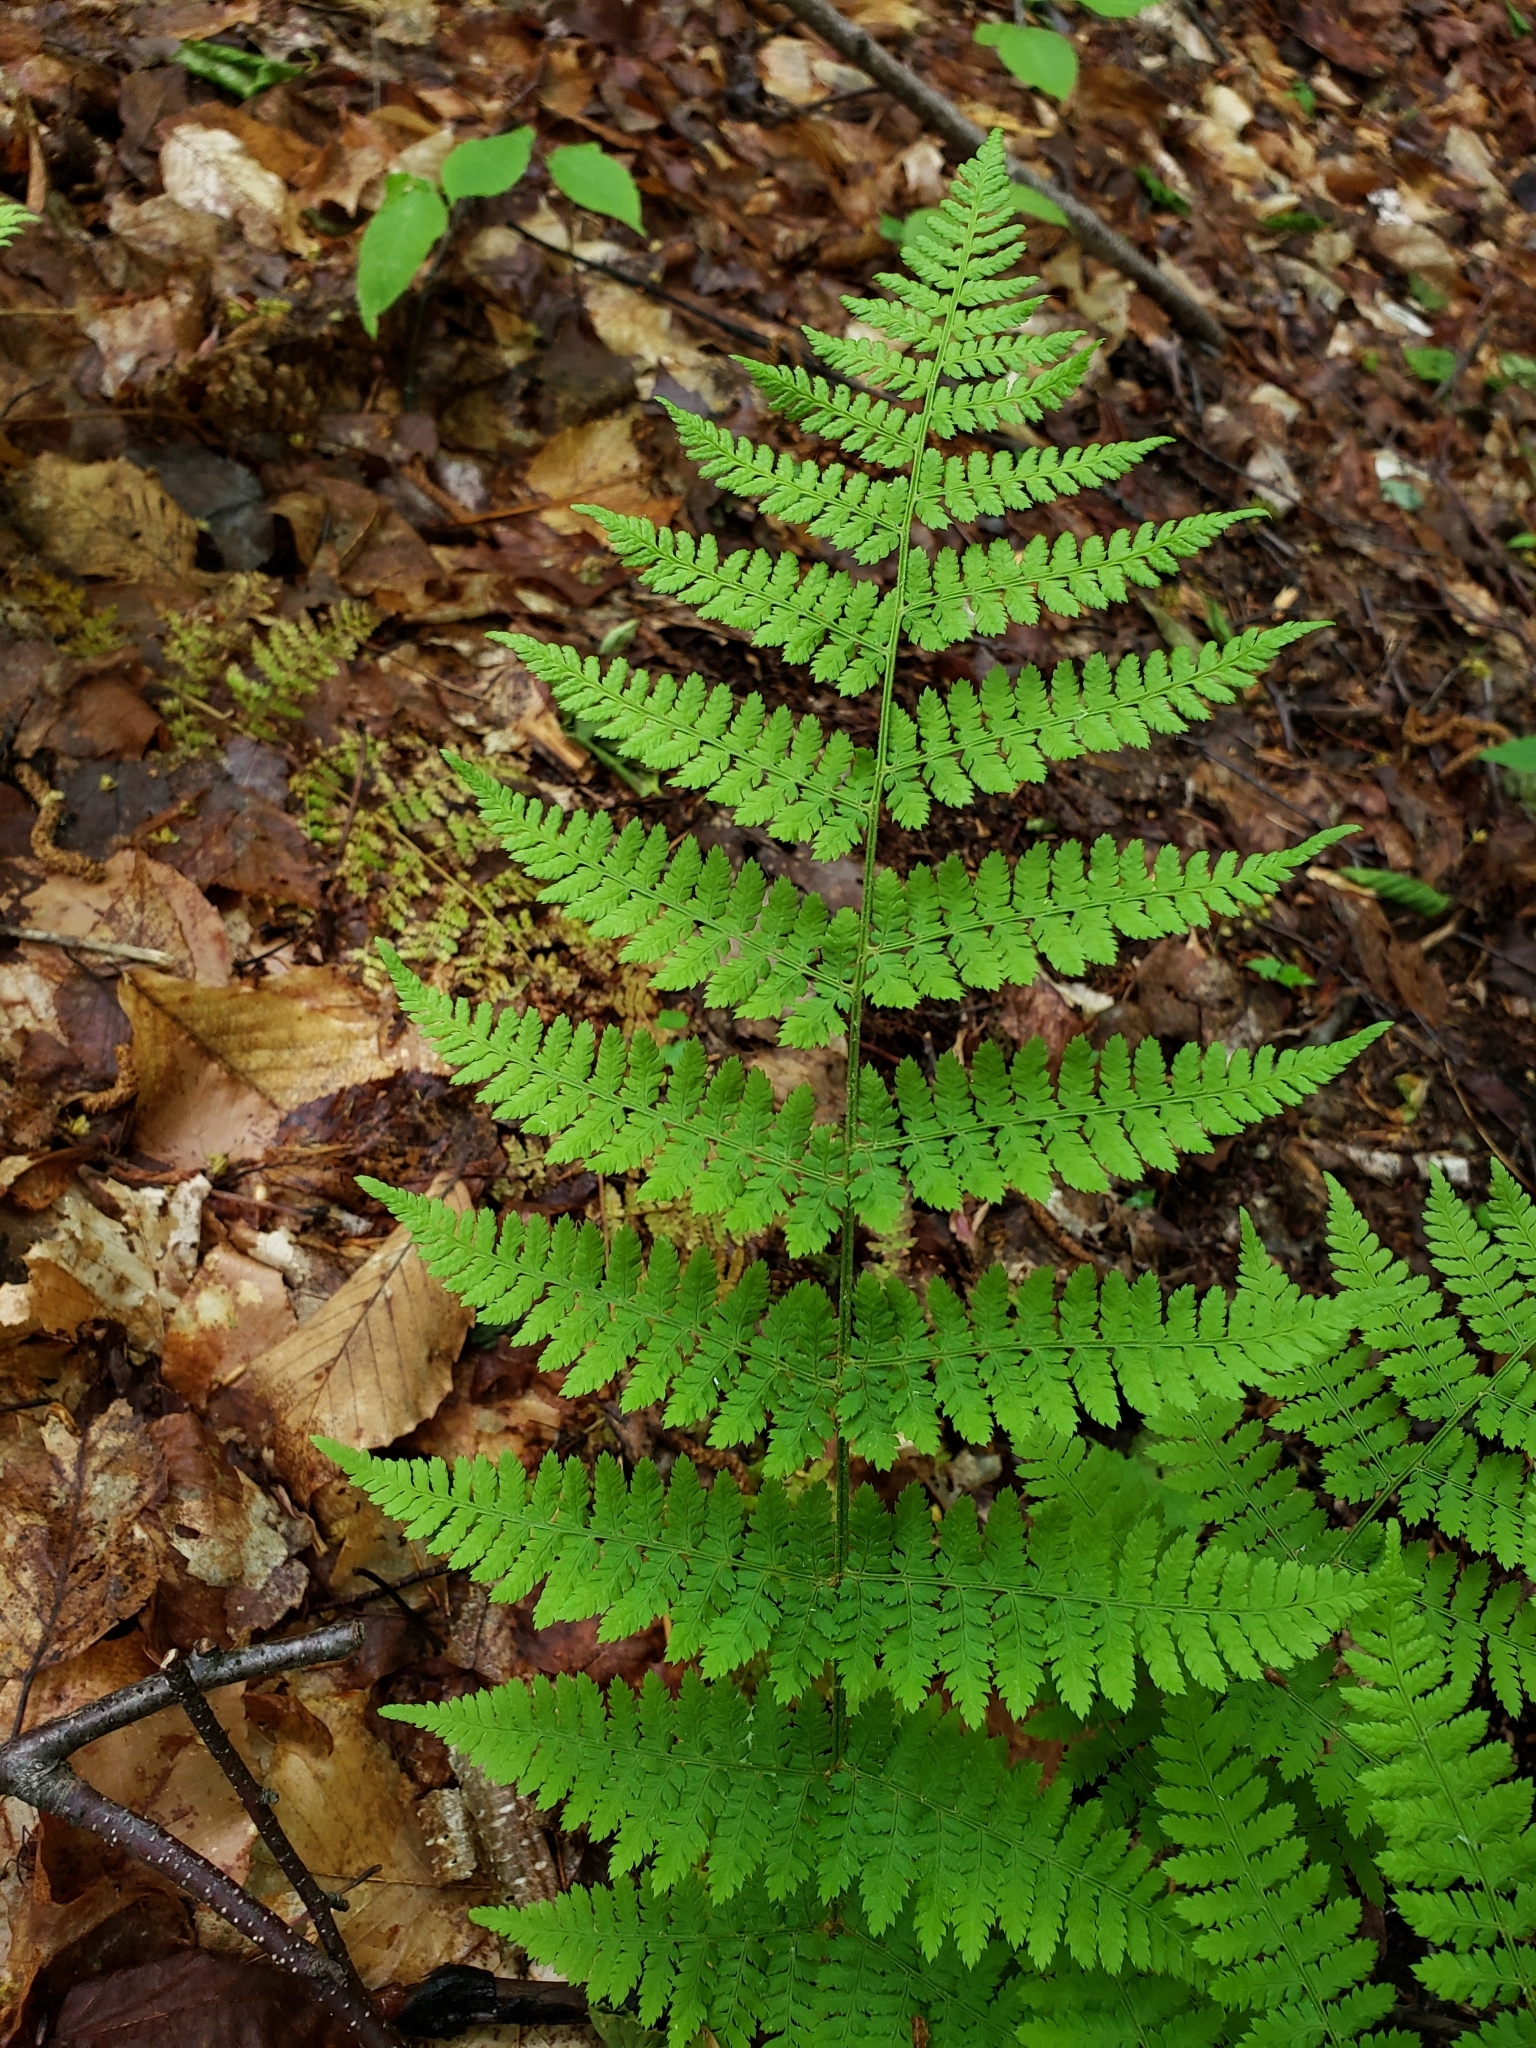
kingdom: Plantae
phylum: Tracheophyta
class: Polypodiopsida
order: Polypodiales
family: Dryopteridaceae
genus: Dryopteris
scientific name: Dryopteris intermedia
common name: Evergreen wood fern
